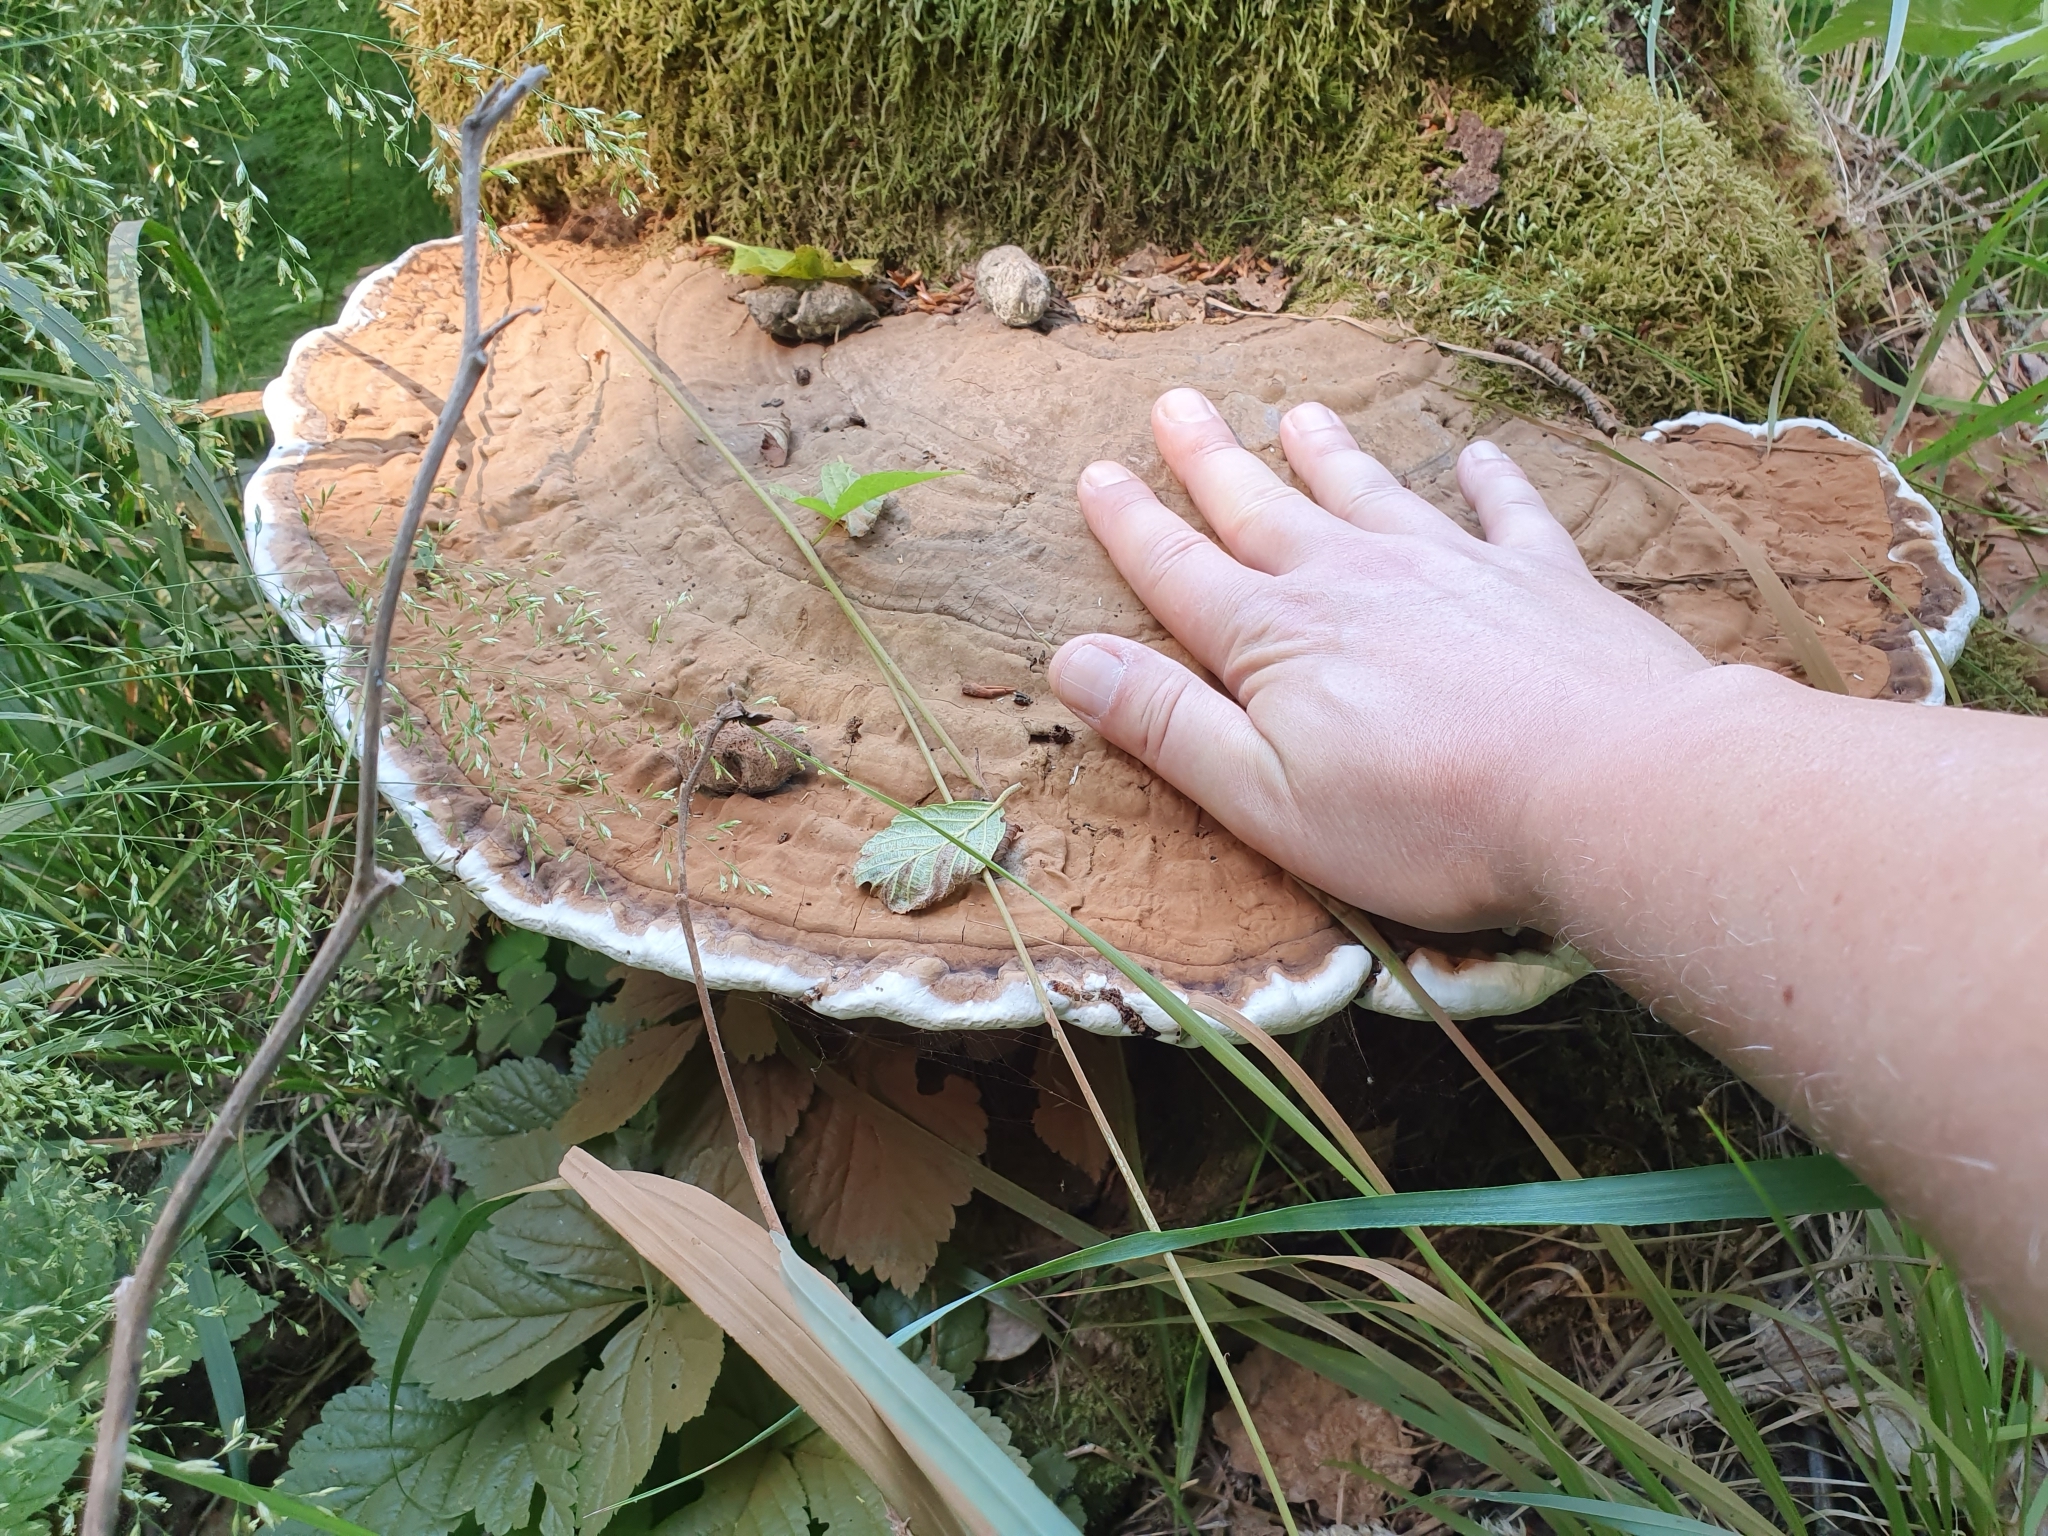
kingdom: Fungi
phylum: Basidiomycota
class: Agaricomycetes
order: Polyporales
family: Polyporaceae
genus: Ganoderma
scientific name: Ganoderma applanatum
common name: Artist's bracket
